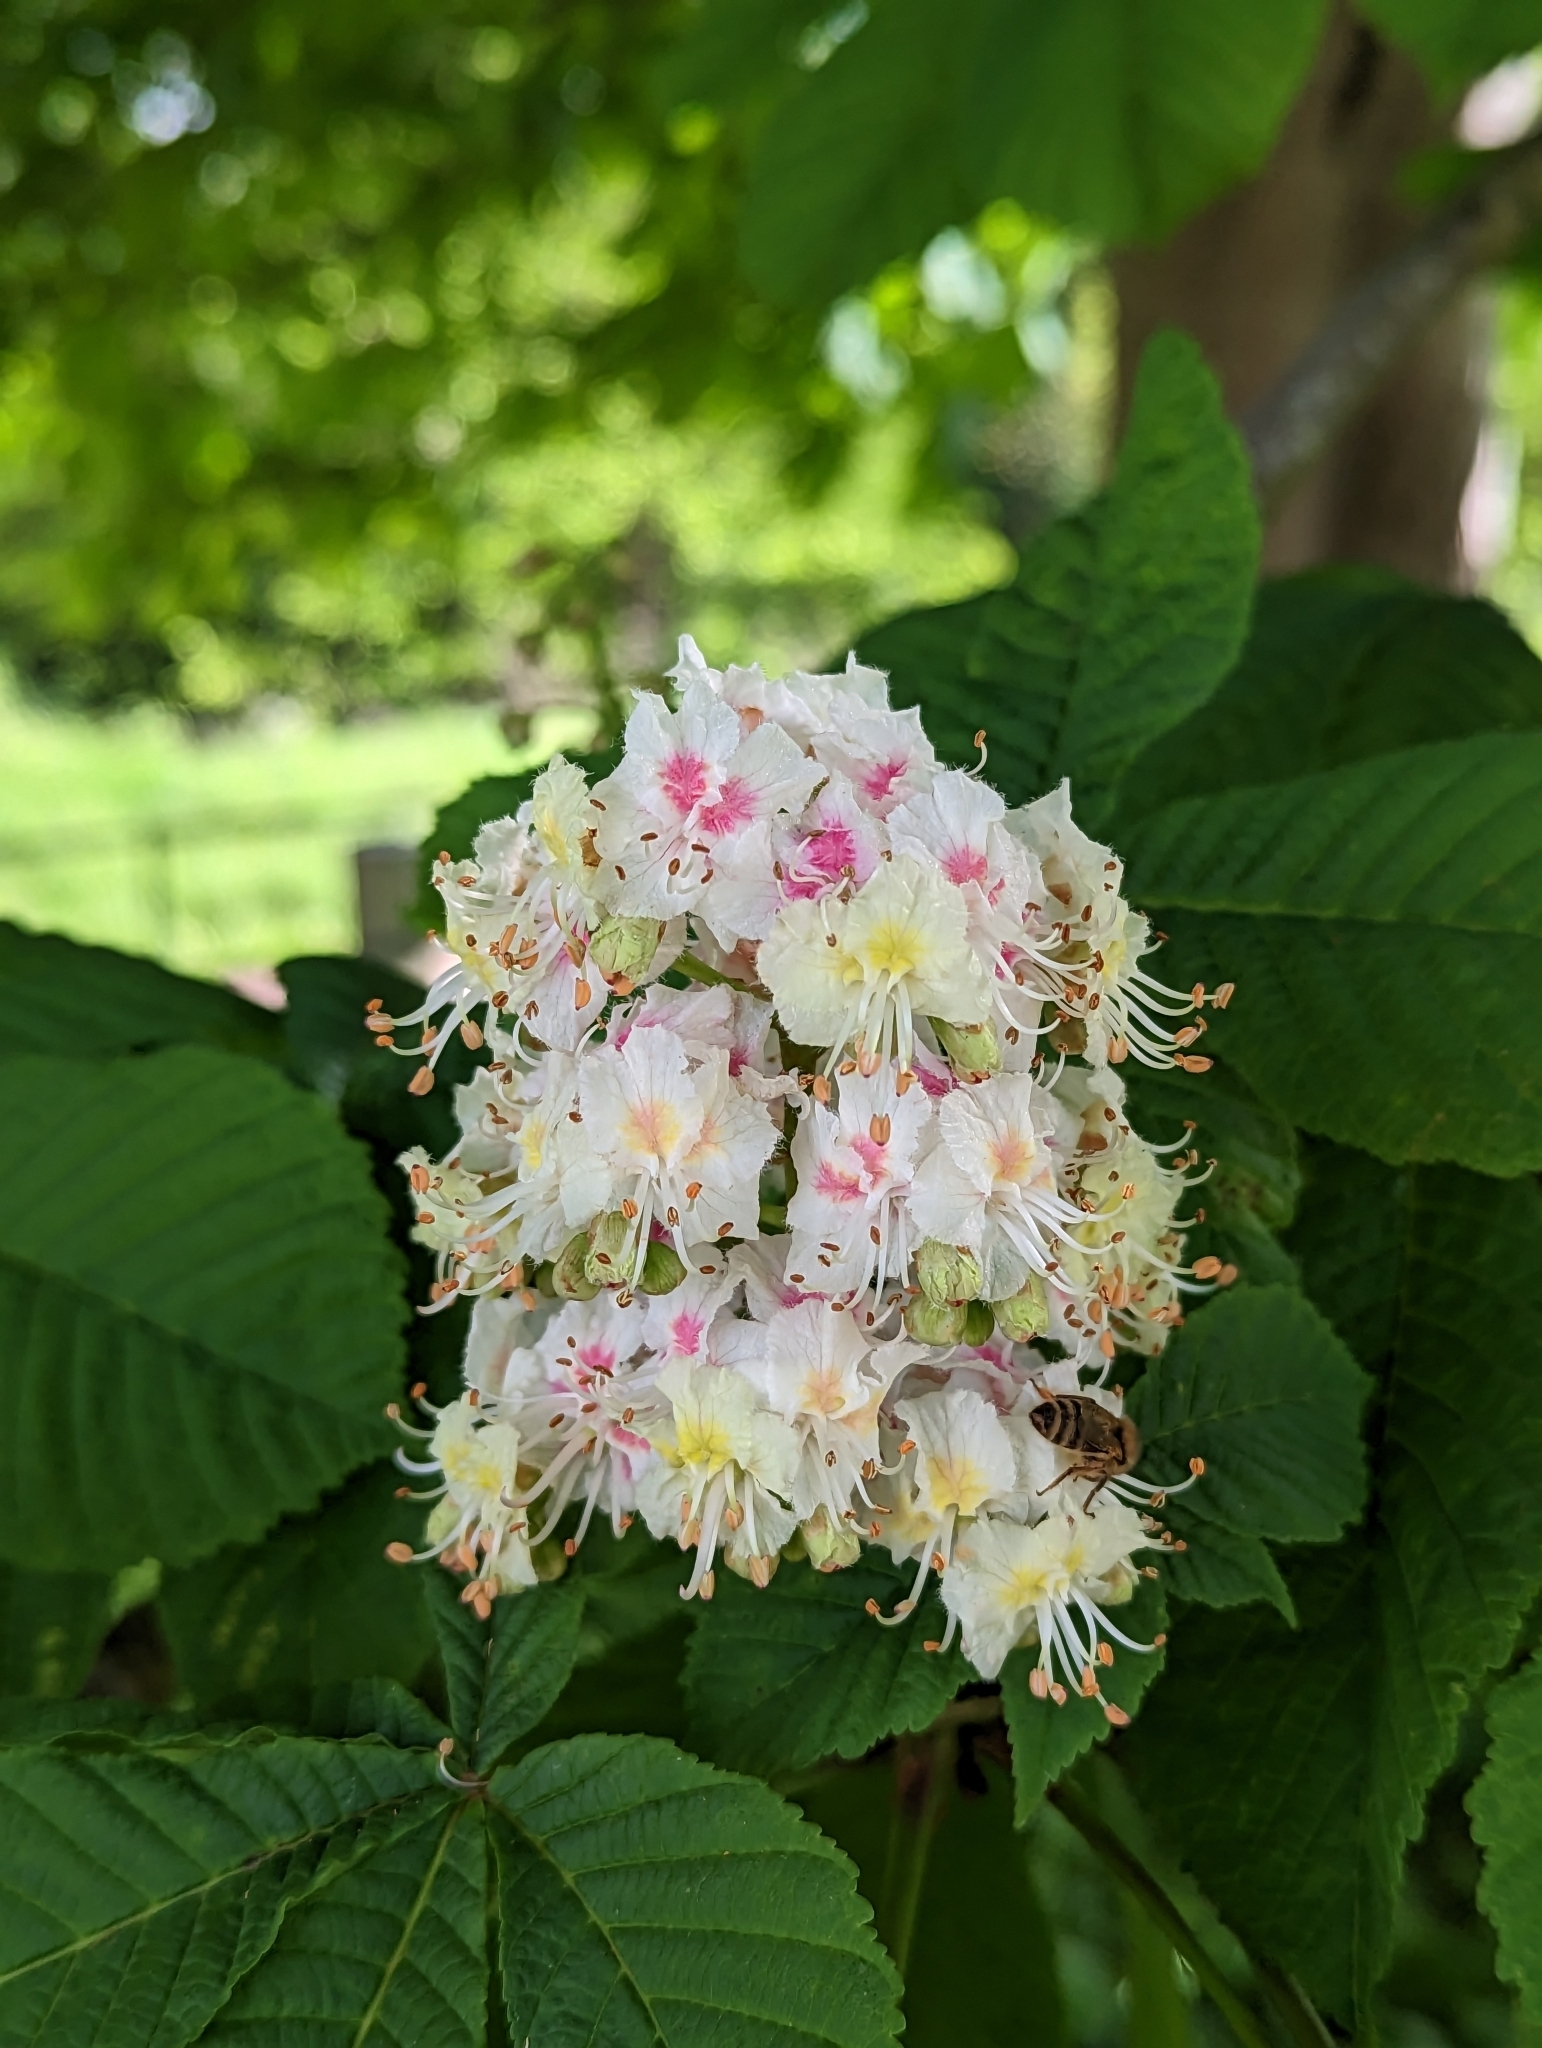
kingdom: Plantae
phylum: Tracheophyta
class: Magnoliopsida
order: Sapindales
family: Sapindaceae
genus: Aesculus
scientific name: Aesculus hippocastanum
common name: Horse-chestnut
